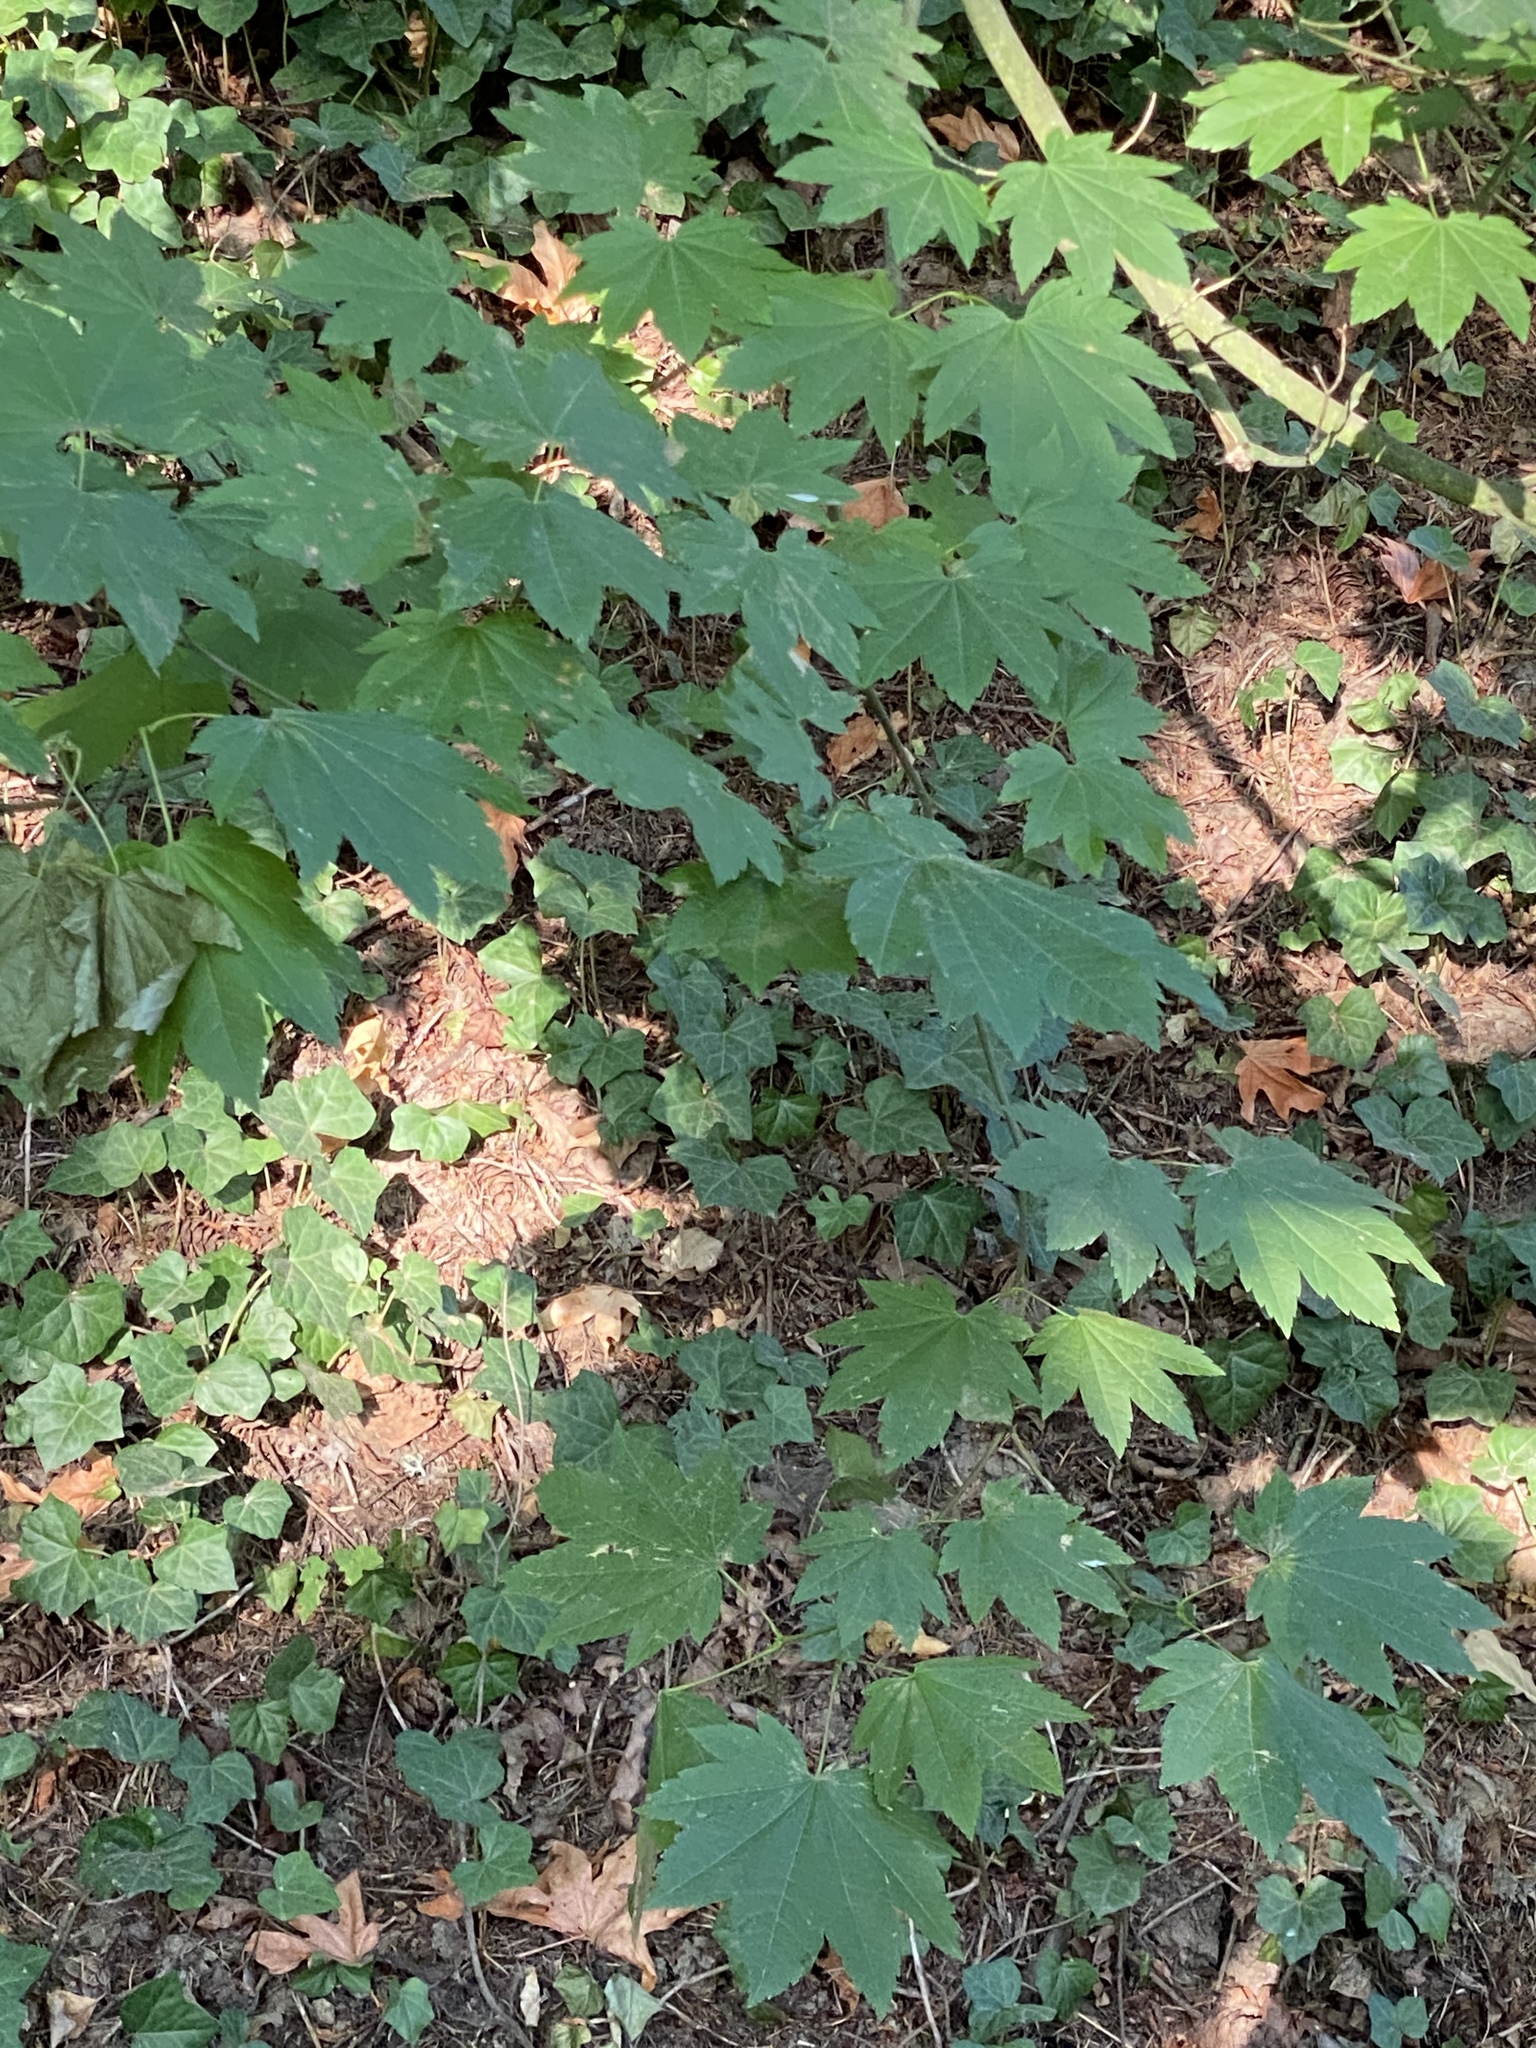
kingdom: Plantae
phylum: Tracheophyta
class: Magnoliopsida
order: Sapindales
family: Sapindaceae
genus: Acer
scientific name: Acer circinatum
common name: Vine maple
